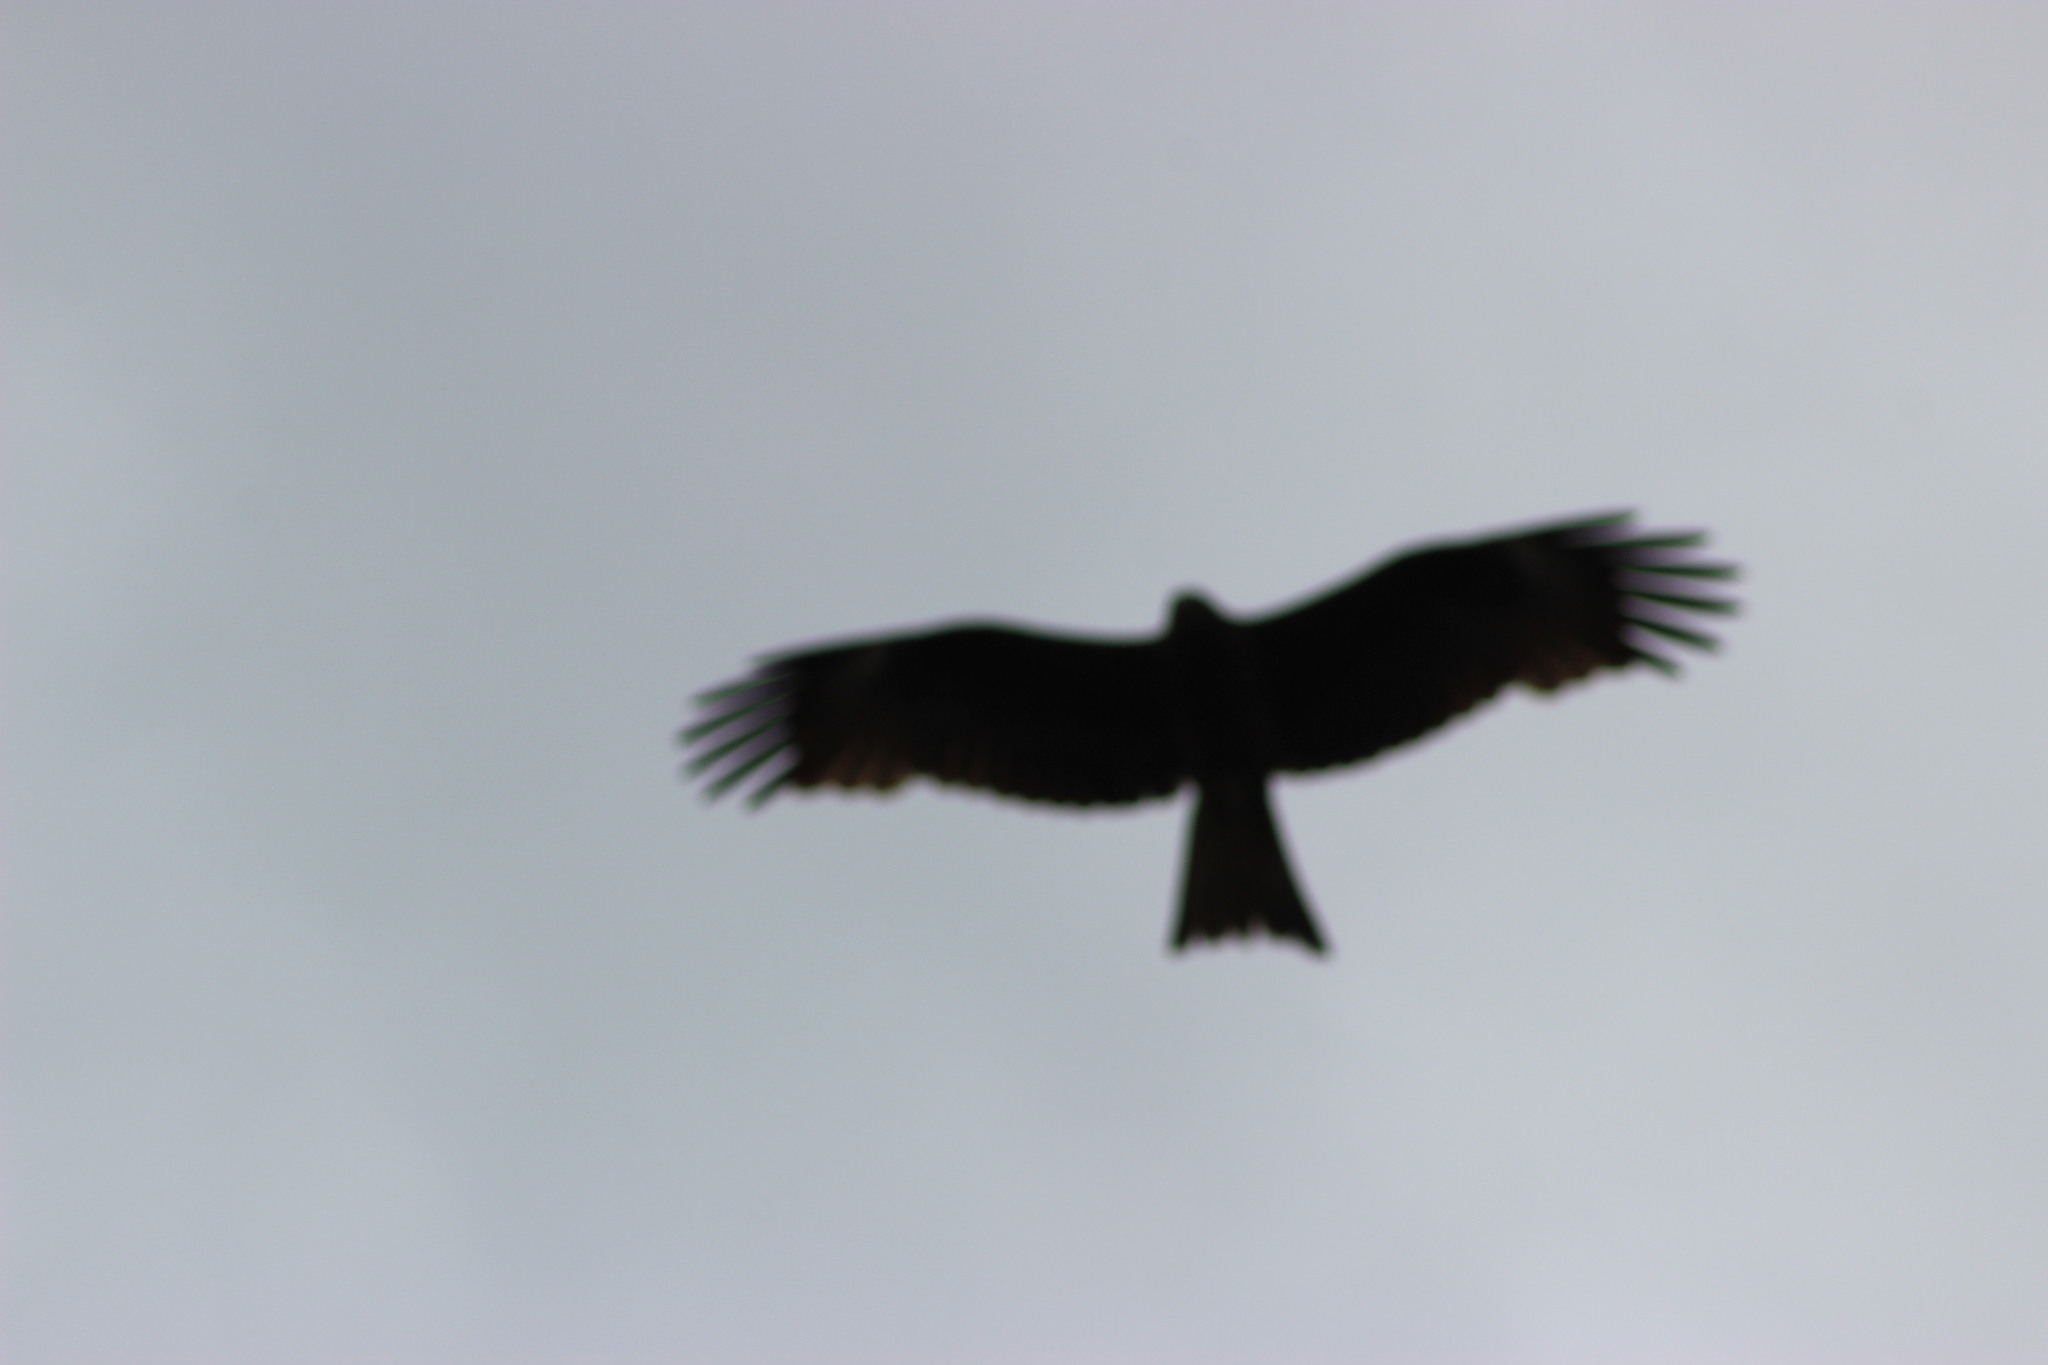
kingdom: Animalia
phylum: Chordata
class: Aves
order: Accipitriformes
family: Accipitridae
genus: Milvus
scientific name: Milvus migrans
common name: Black kite
